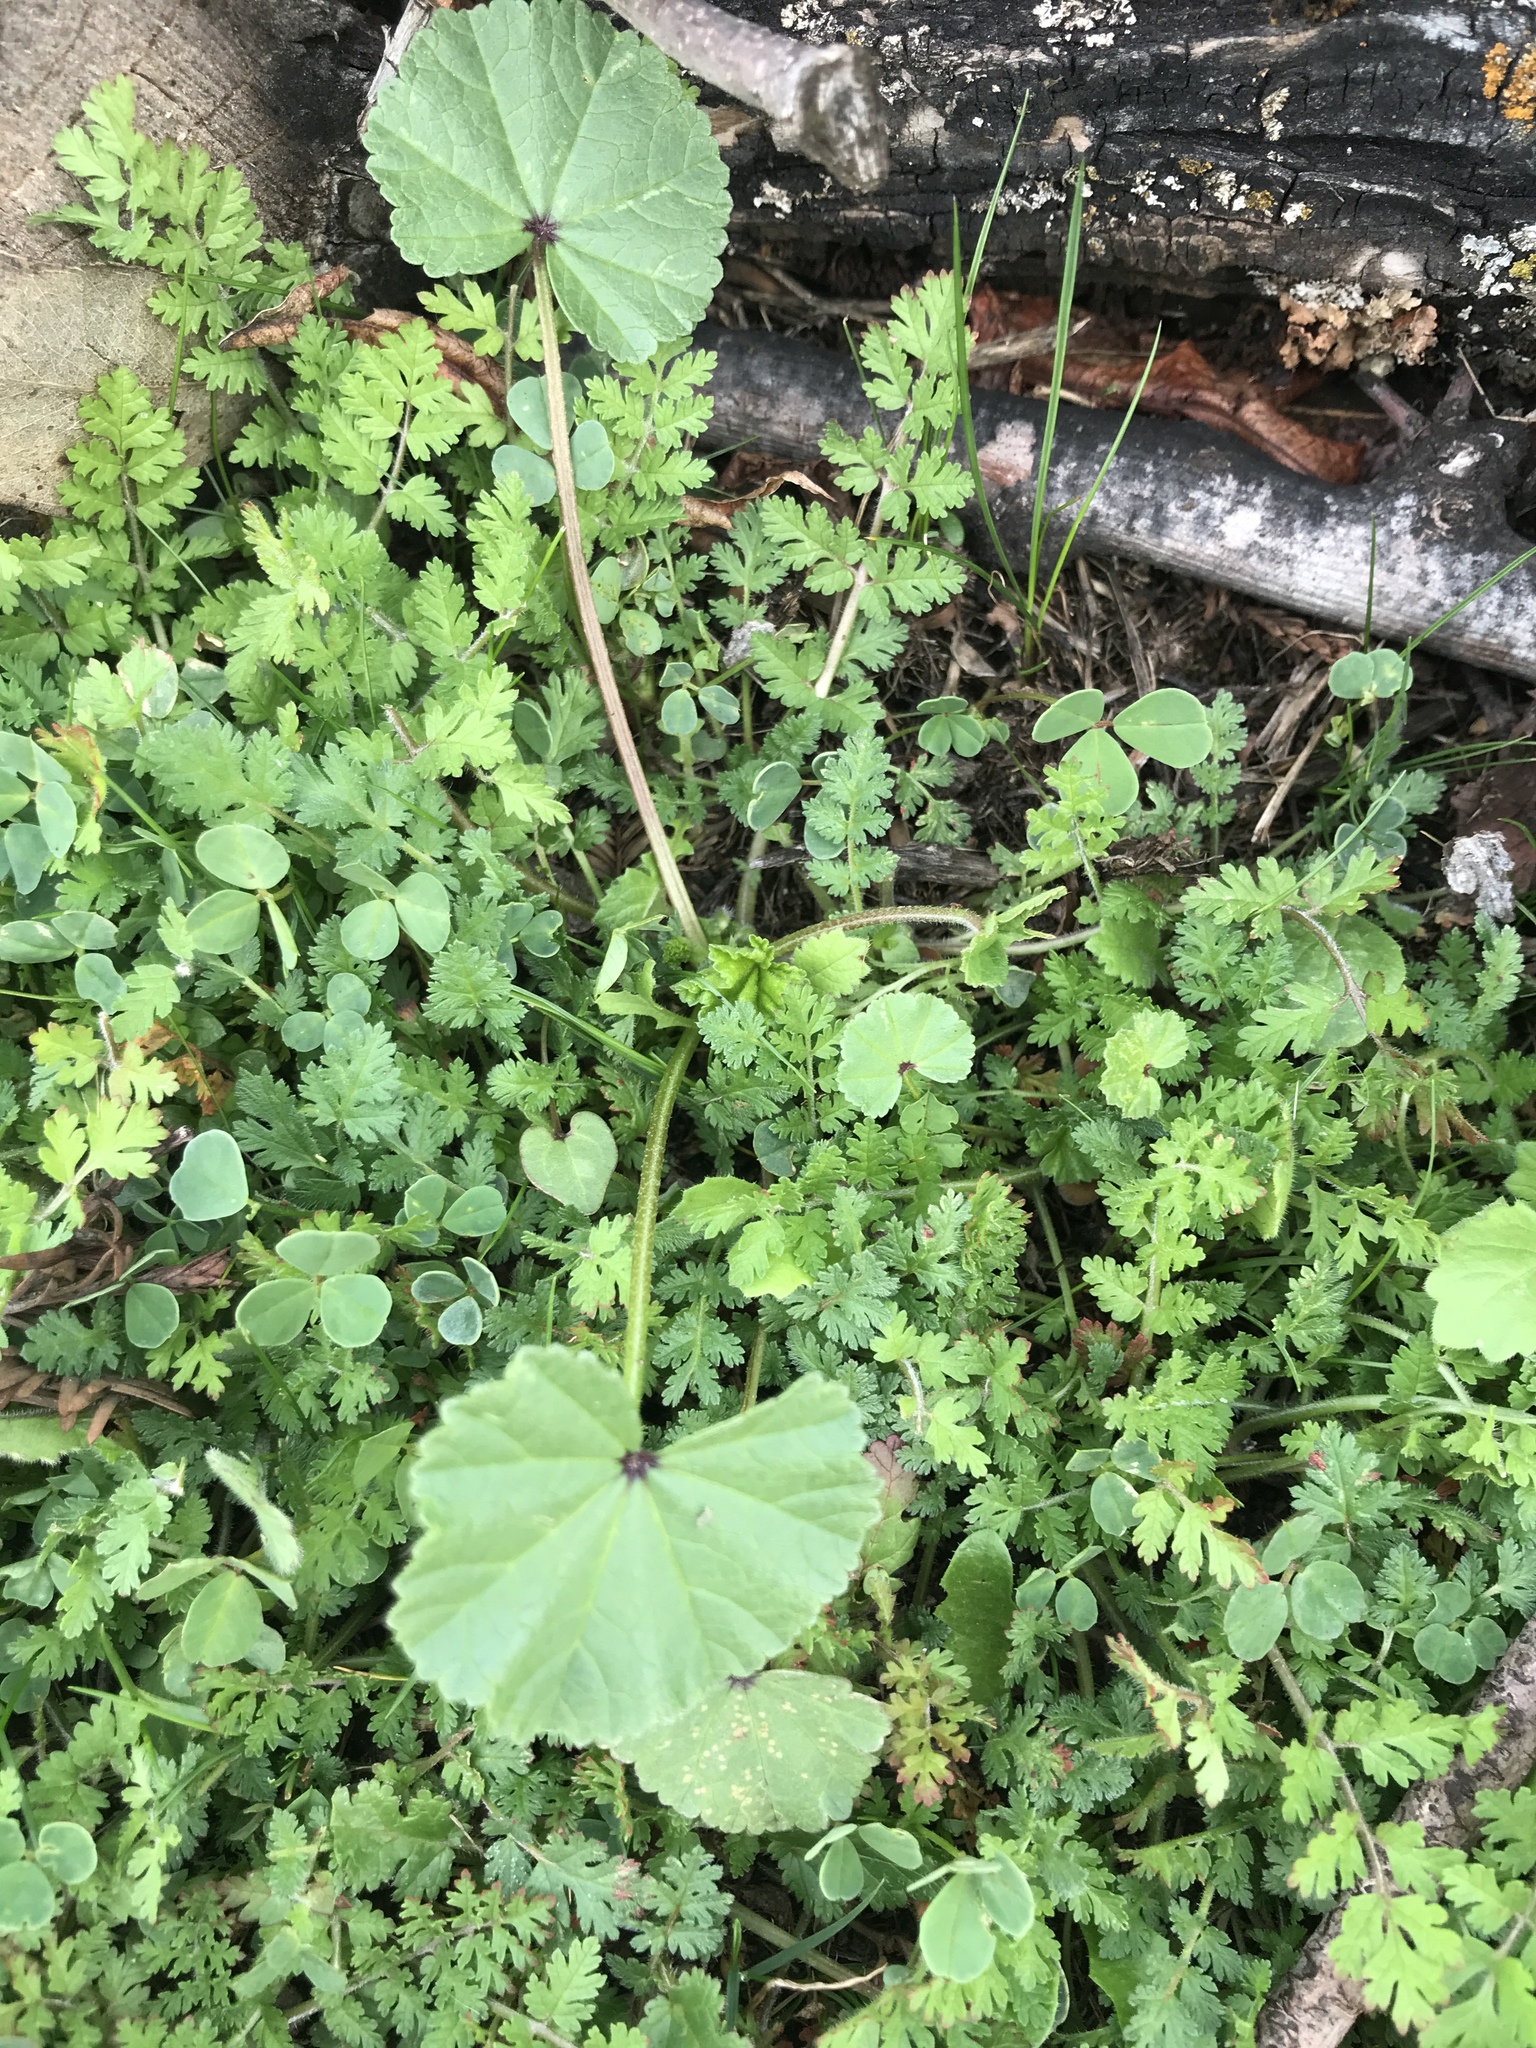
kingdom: Plantae
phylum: Tracheophyta
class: Magnoliopsida
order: Malvales
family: Malvaceae
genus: Malva
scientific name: Malva
